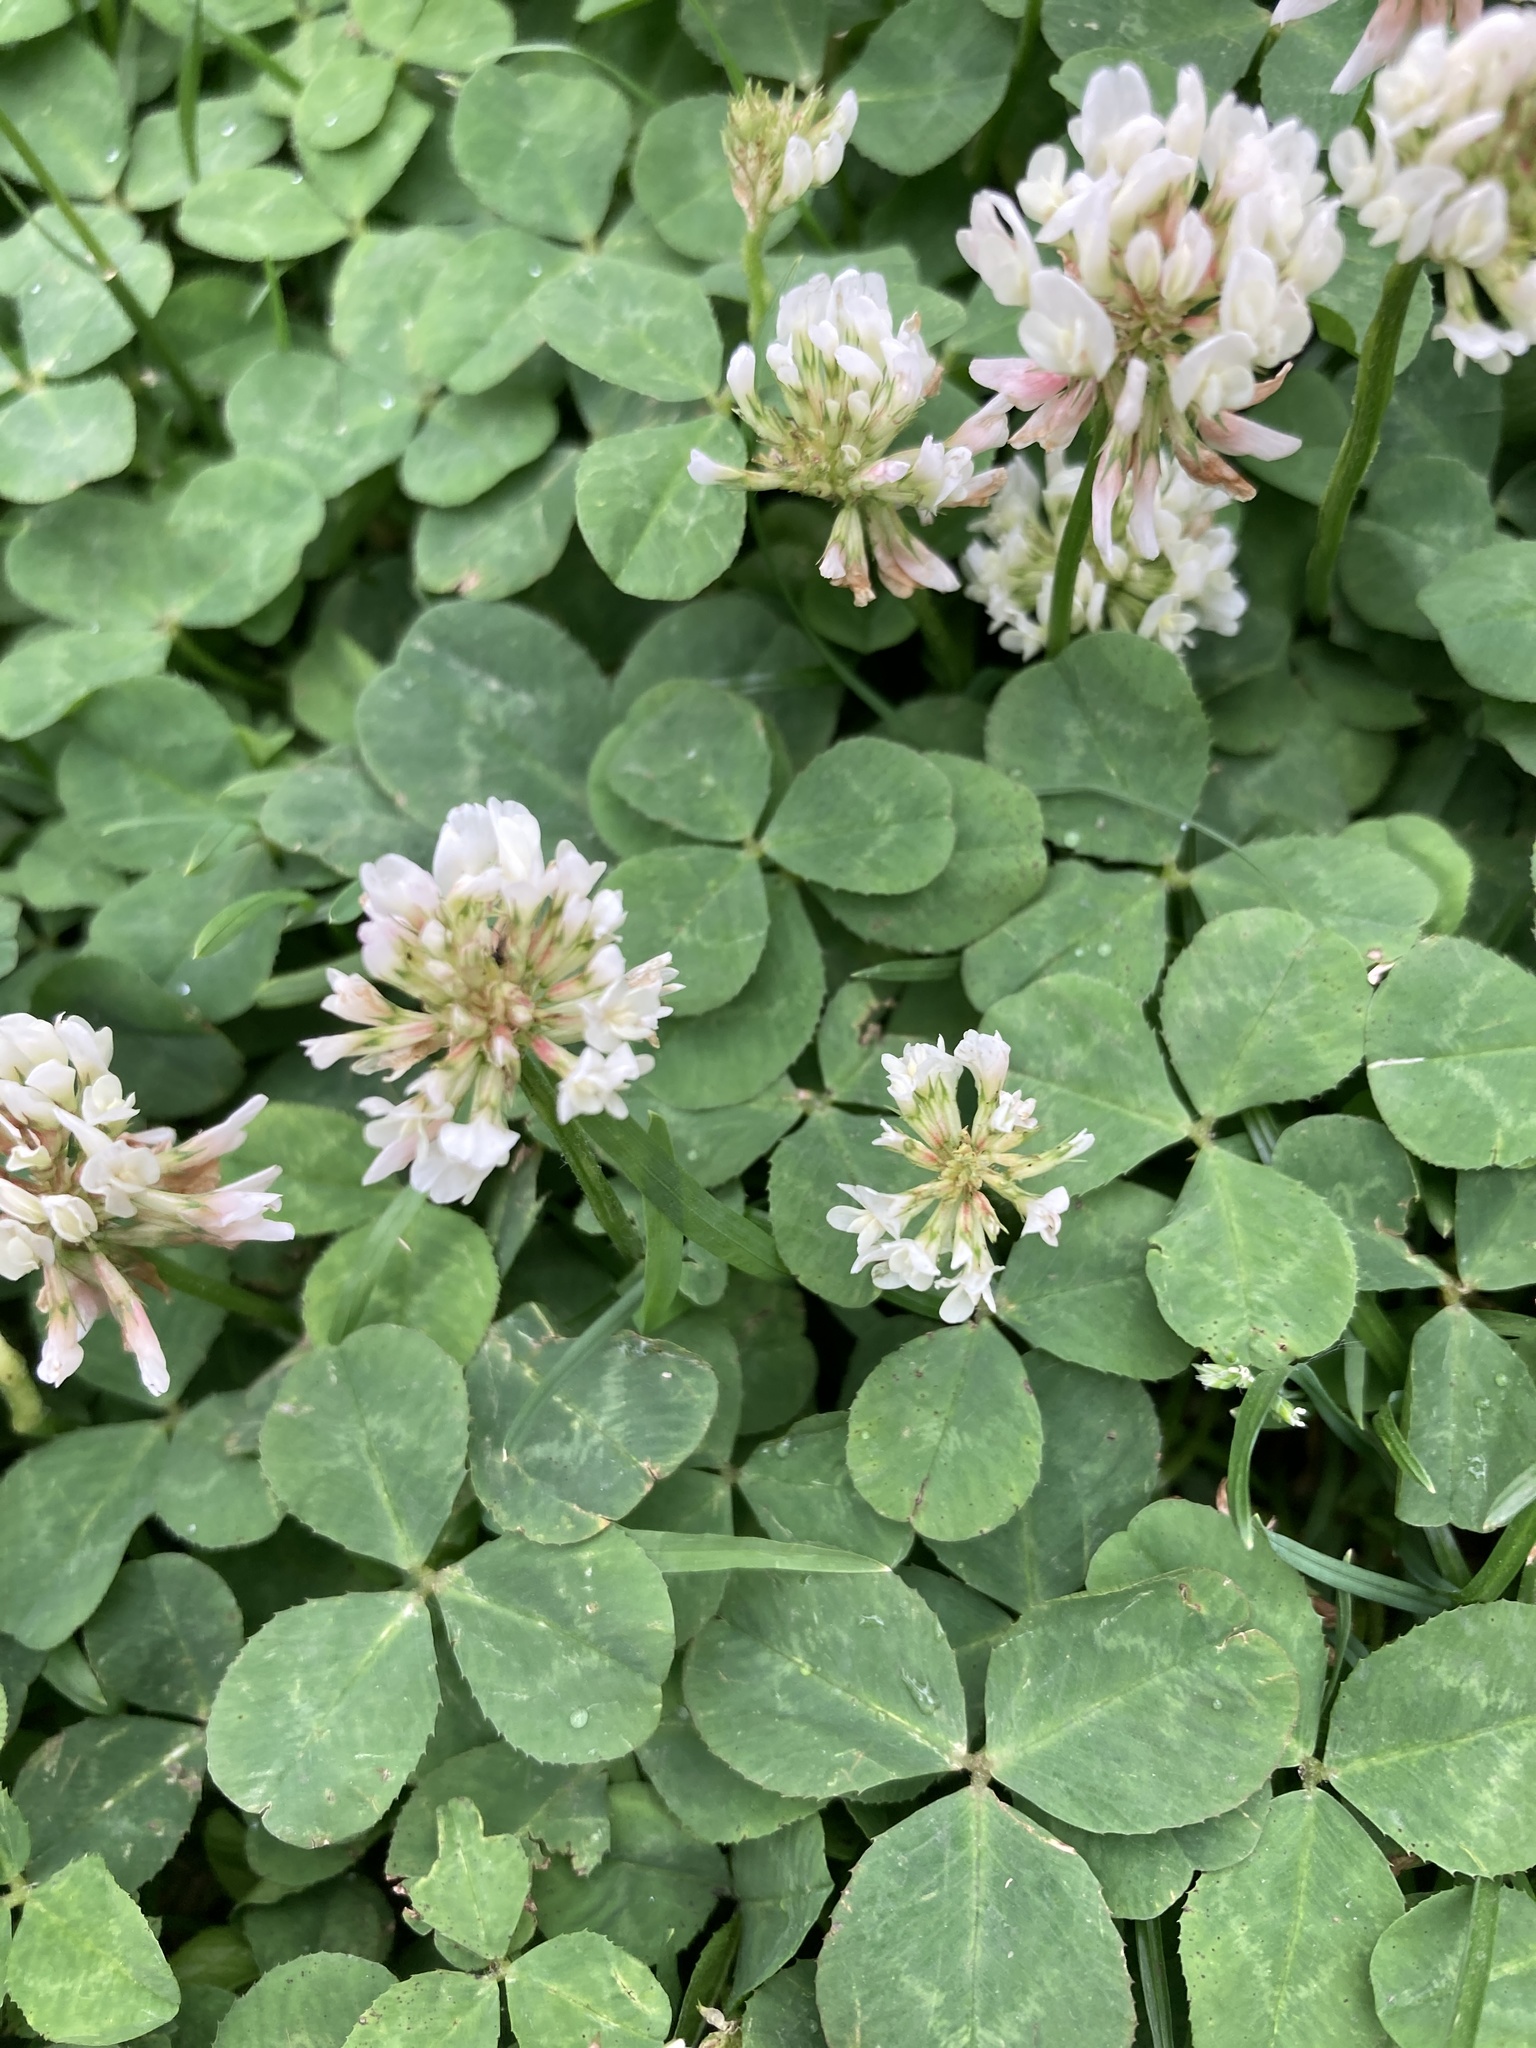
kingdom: Plantae
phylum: Tracheophyta
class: Magnoliopsida
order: Fabales
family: Fabaceae
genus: Trifolium
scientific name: Trifolium repens
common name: White clover
